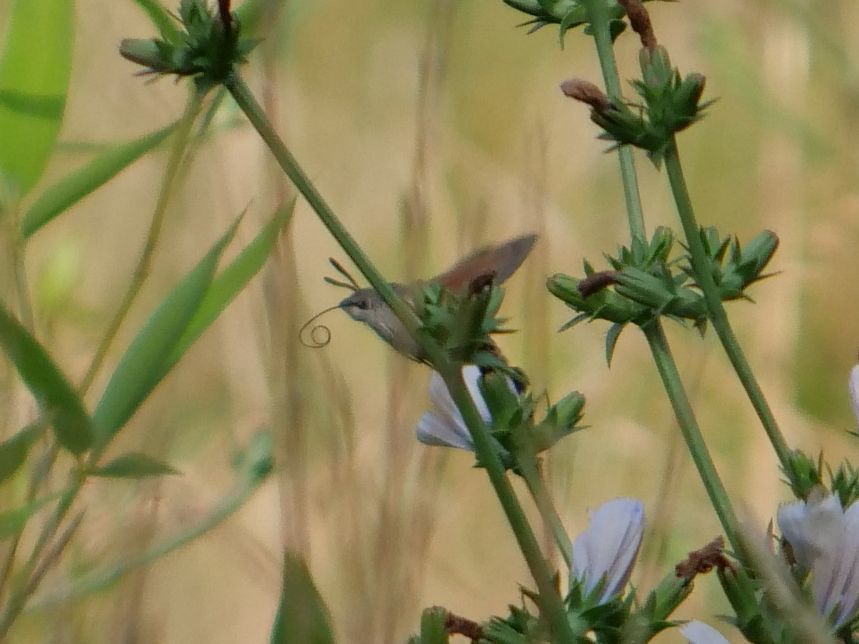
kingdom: Animalia
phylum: Arthropoda
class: Insecta
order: Lepidoptera
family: Sphingidae
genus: Macroglossum
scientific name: Macroglossum stellatarum
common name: Humming-bird hawk-moth
